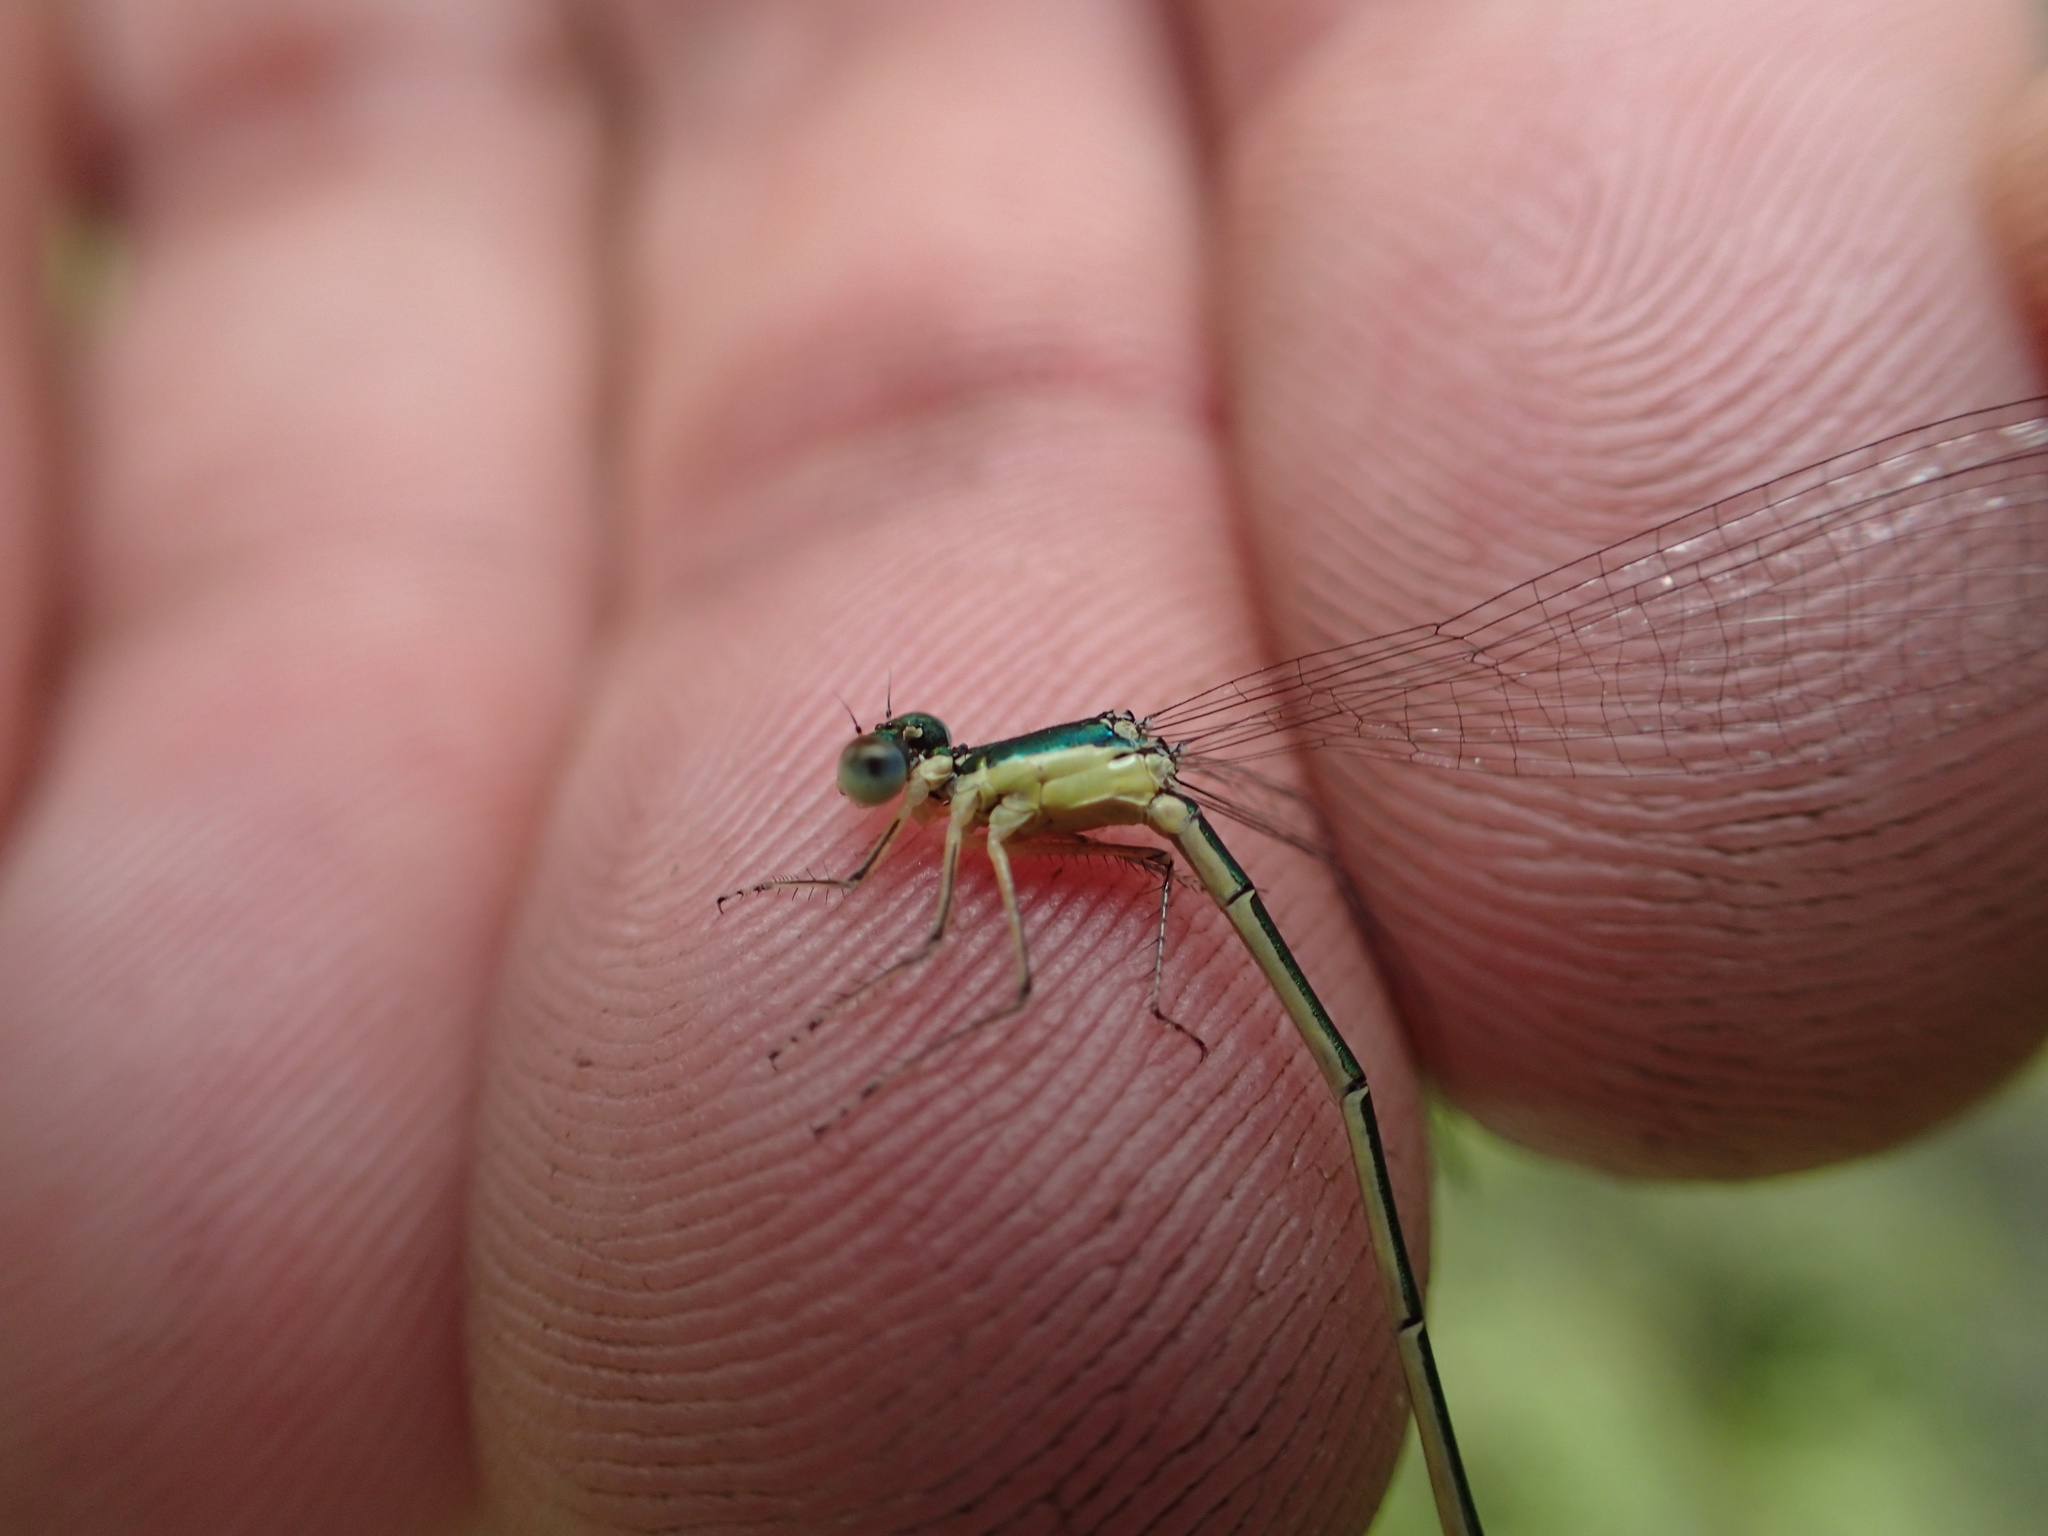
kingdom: Animalia
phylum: Arthropoda
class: Insecta
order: Odonata
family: Coenagrionidae
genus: Nehalennia
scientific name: Nehalennia irene
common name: Sedge sprite
